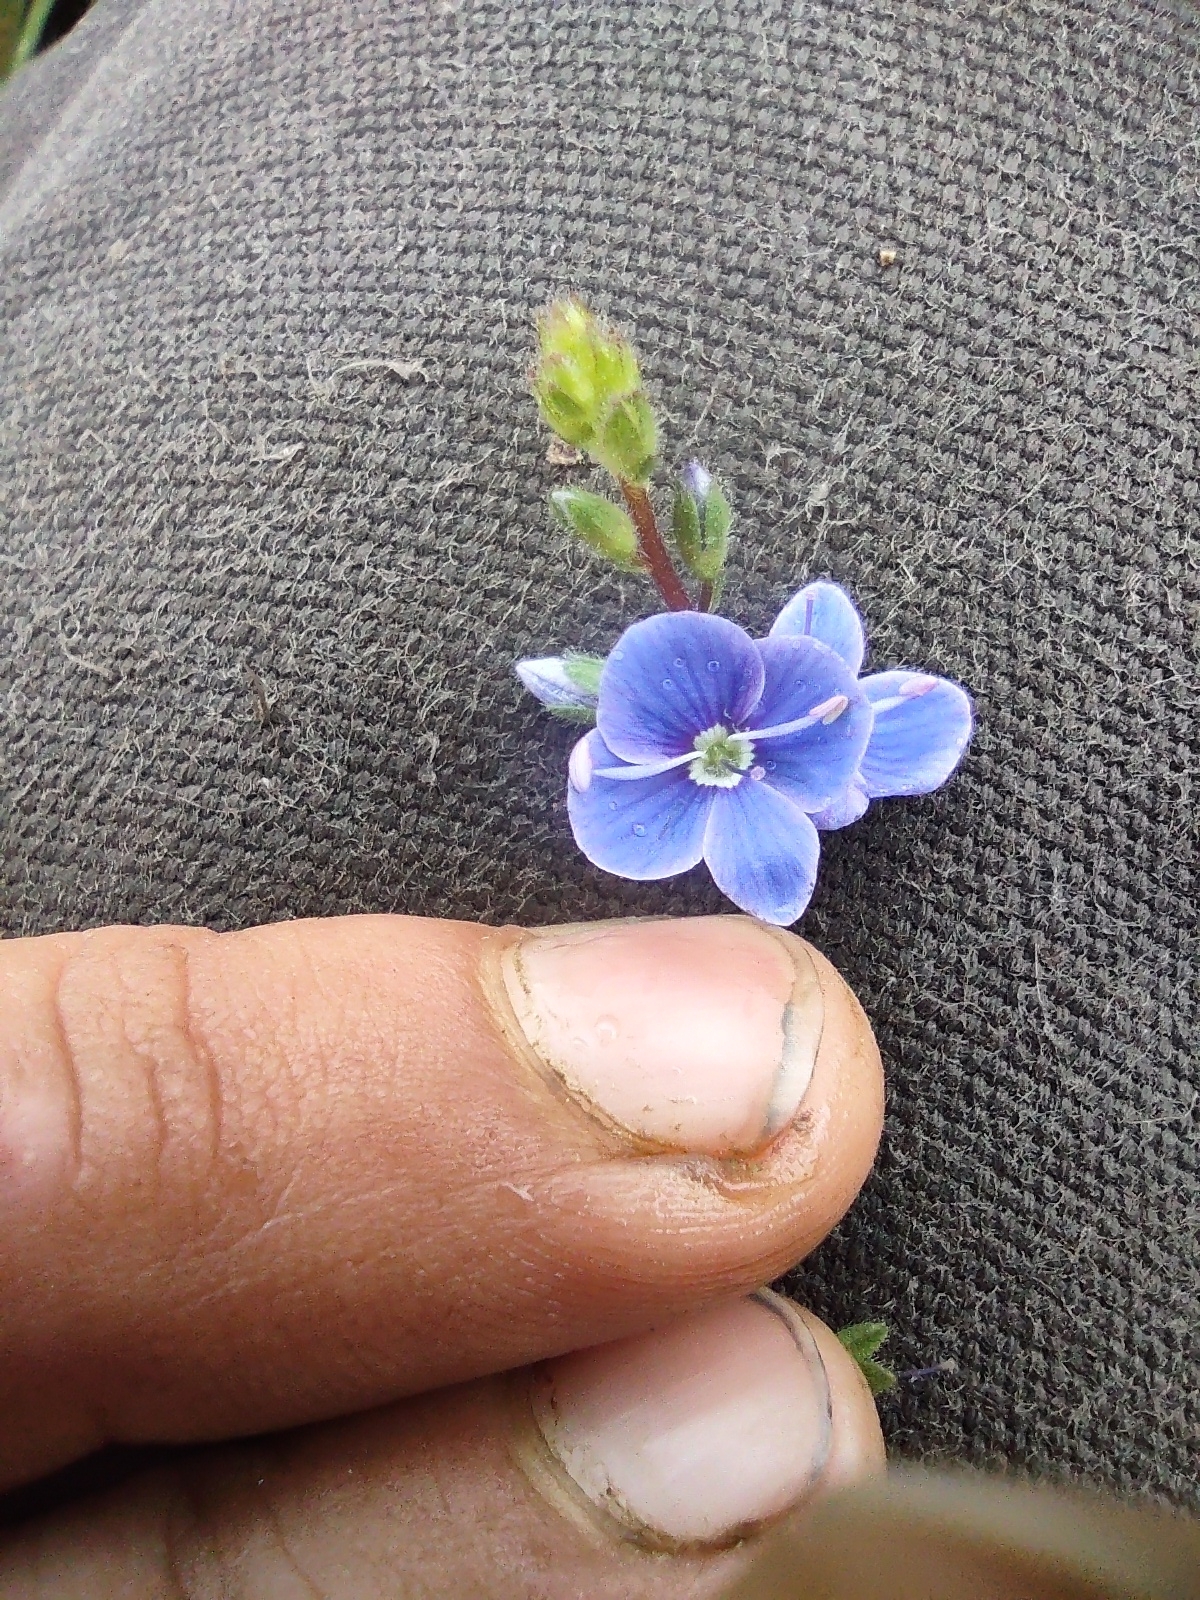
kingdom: Plantae
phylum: Tracheophyta
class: Magnoliopsida
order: Lamiales
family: Plantaginaceae
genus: Veronica
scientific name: Veronica chamaedrys
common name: Germander speedwell
